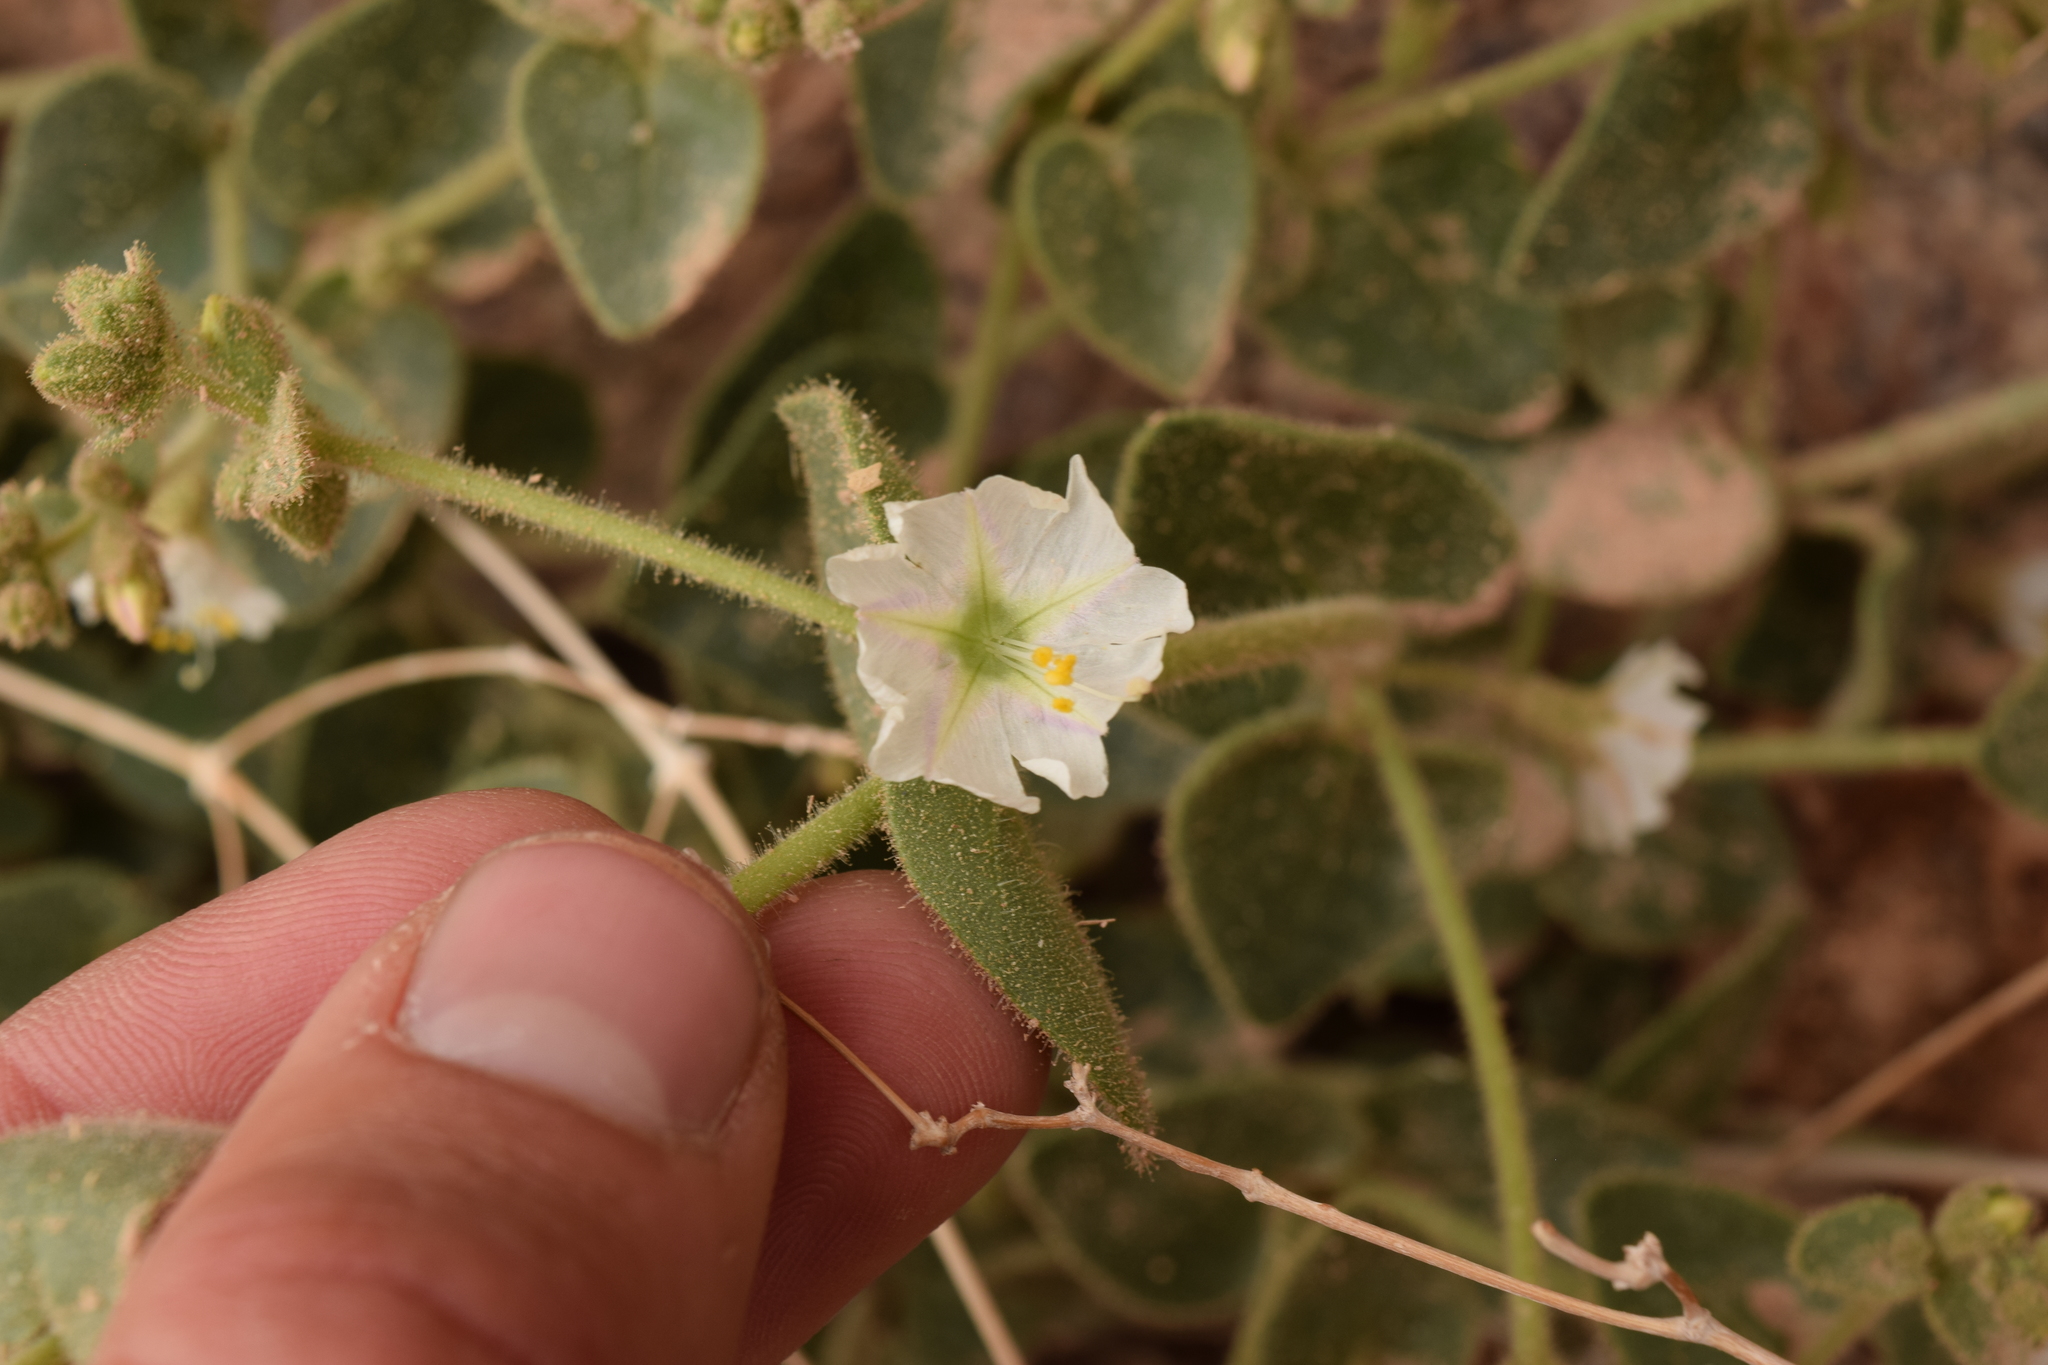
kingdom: Plantae
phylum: Tracheophyta
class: Magnoliopsida
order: Caryophyllales
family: Nyctaginaceae
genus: Mirabilis
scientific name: Mirabilis laevis
